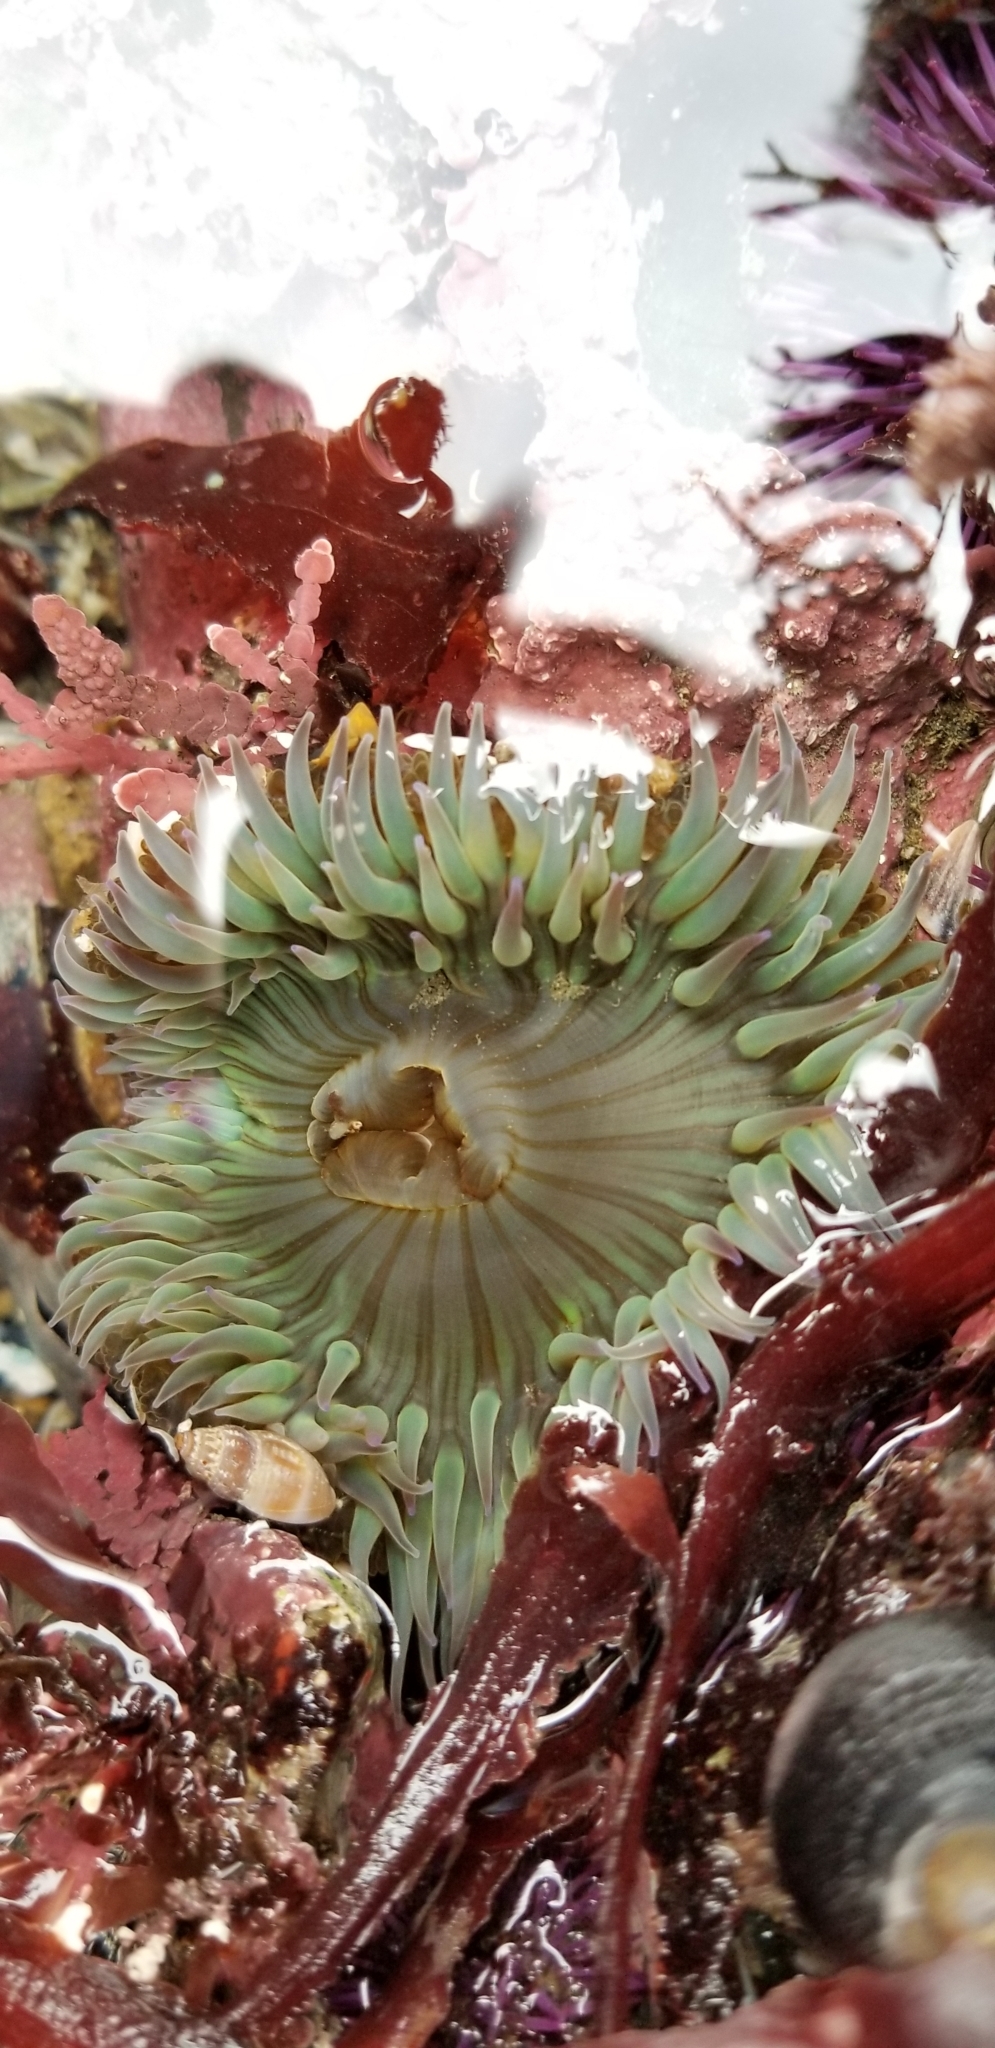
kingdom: Animalia
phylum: Cnidaria
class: Anthozoa
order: Actiniaria
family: Actiniidae
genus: Anthopleura
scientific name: Anthopleura sola
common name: Sun anemone
